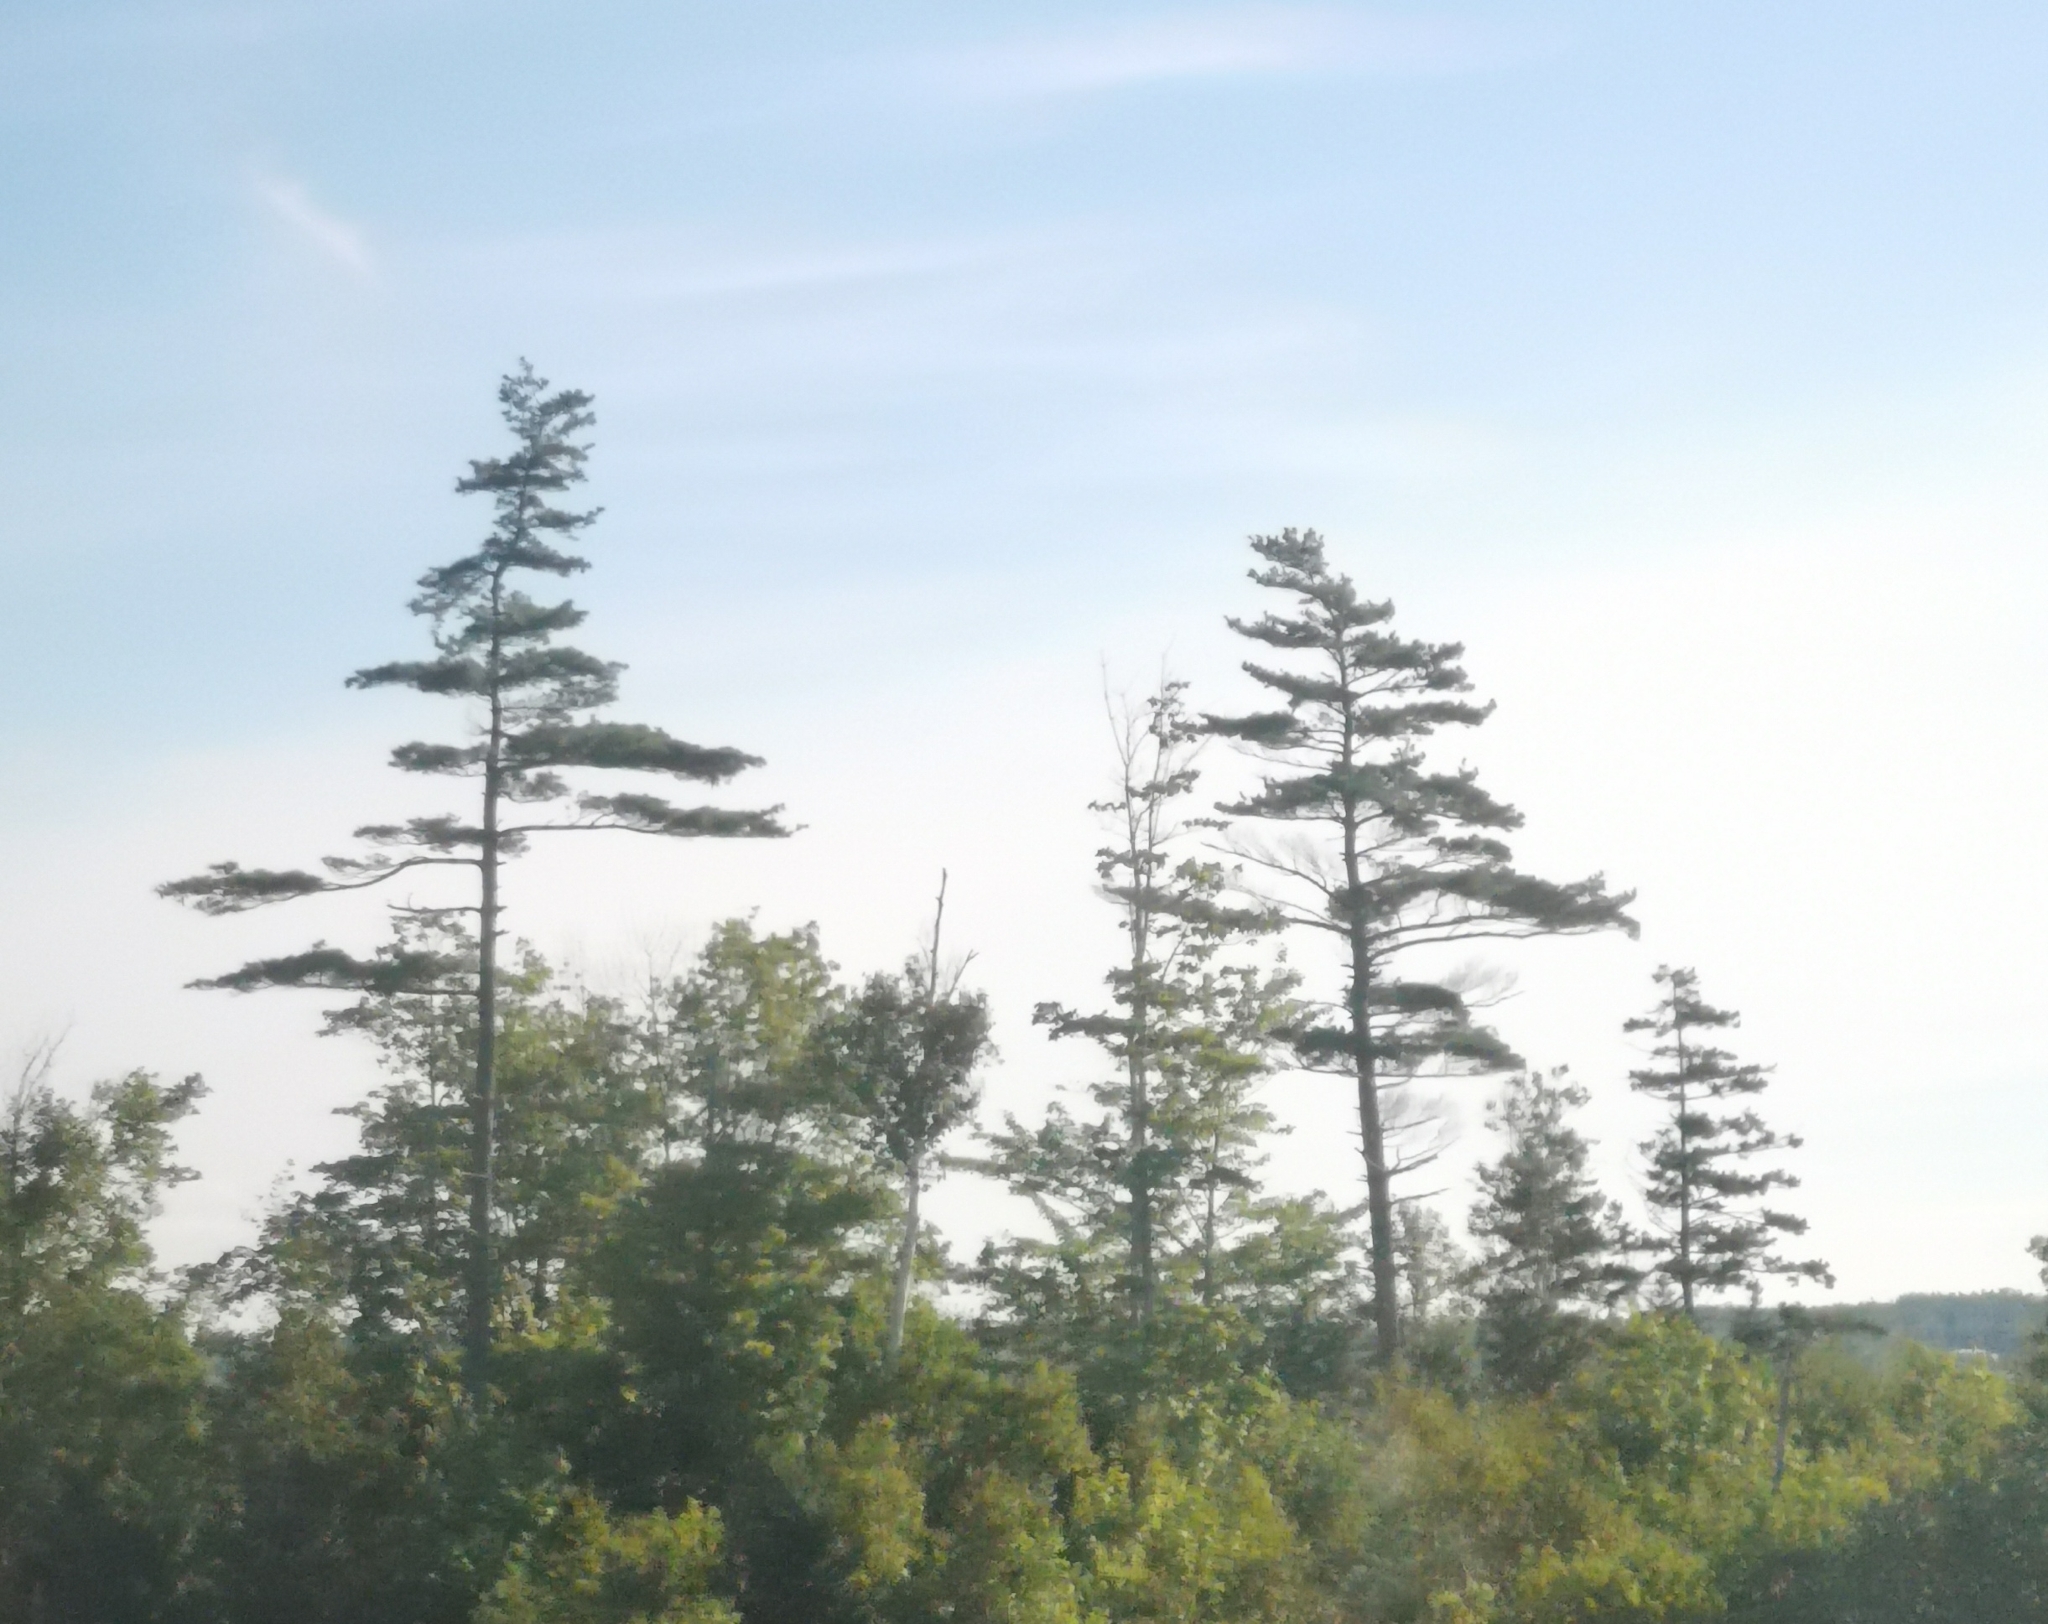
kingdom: Plantae
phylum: Tracheophyta
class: Pinopsida
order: Pinales
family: Pinaceae
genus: Pinus
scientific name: Pinus strobus
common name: Weymouth pine
